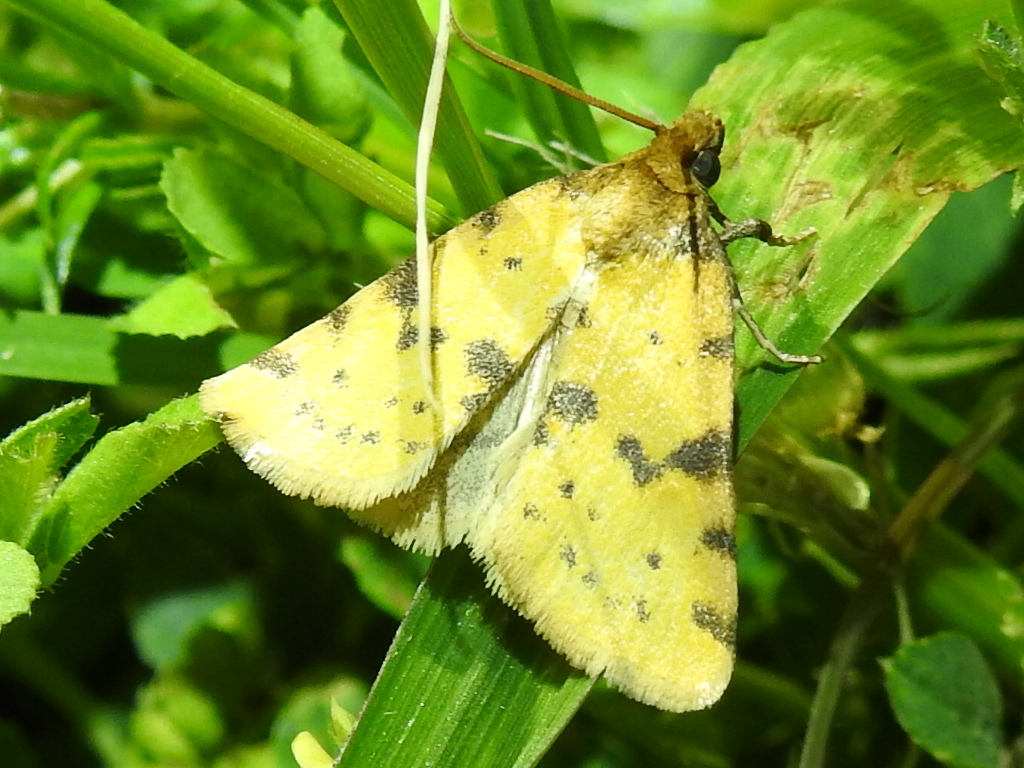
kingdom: Animalia
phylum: Arthropoda
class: Insecta
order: Lepidoptera
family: Noctuidae
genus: Azenia
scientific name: Azenia obtusa
